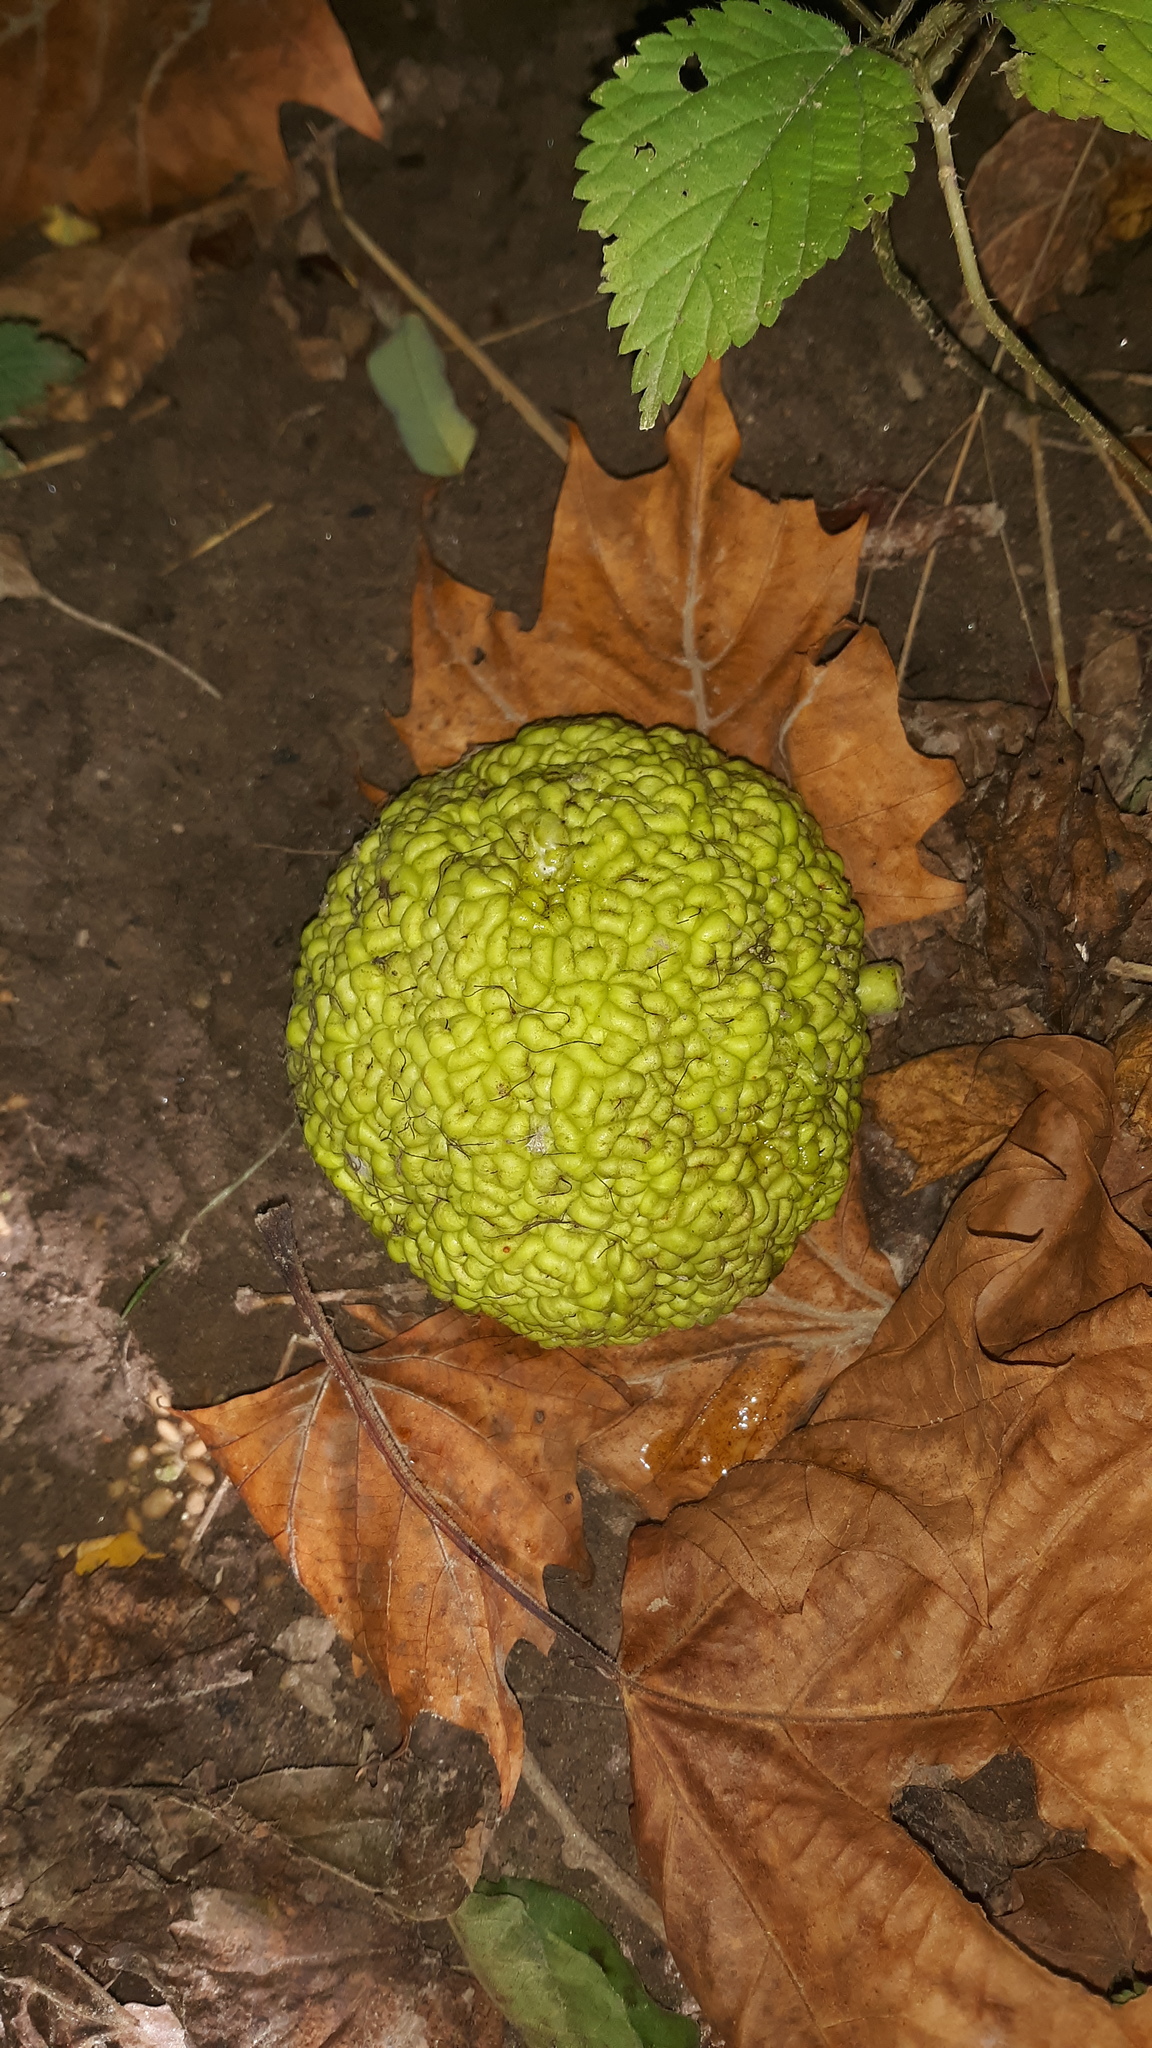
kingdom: Plantae
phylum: Tracheophyta
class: Magnoliopsida
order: Rosales
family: Moraceae
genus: Maclura
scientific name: Maclura pomifera
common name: Osage-orange
